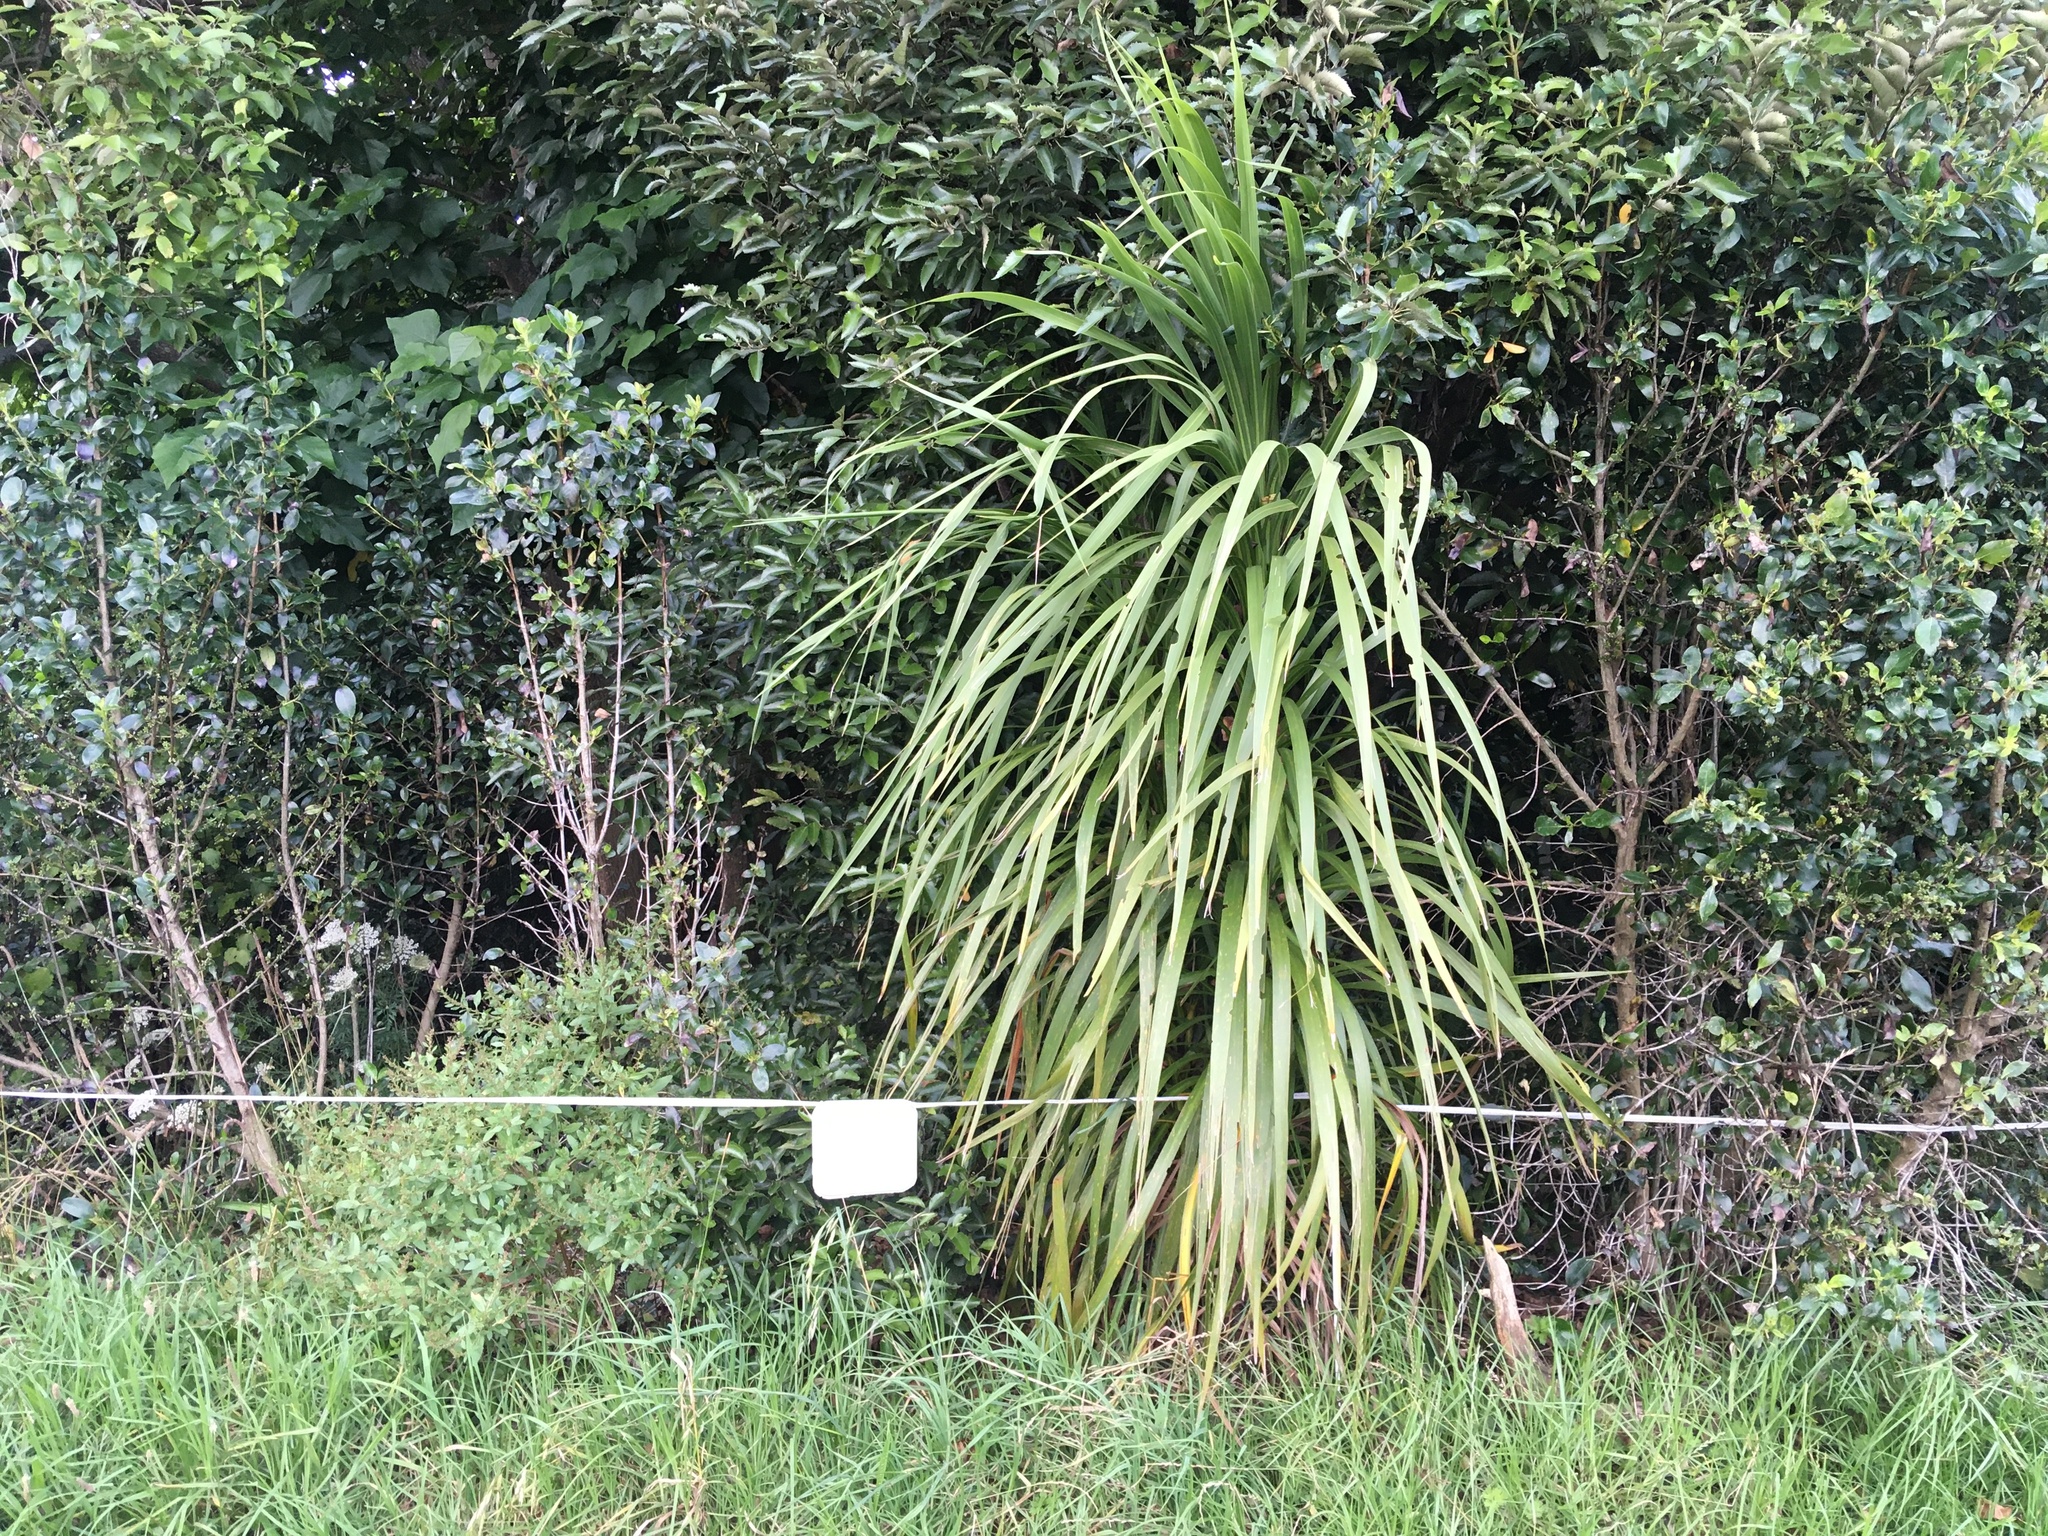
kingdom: Plantae
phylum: Tracheophyta
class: Magnoliopsida
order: Gentianales
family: Rubiaceae
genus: Coprosma
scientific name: Coprosma robusta
